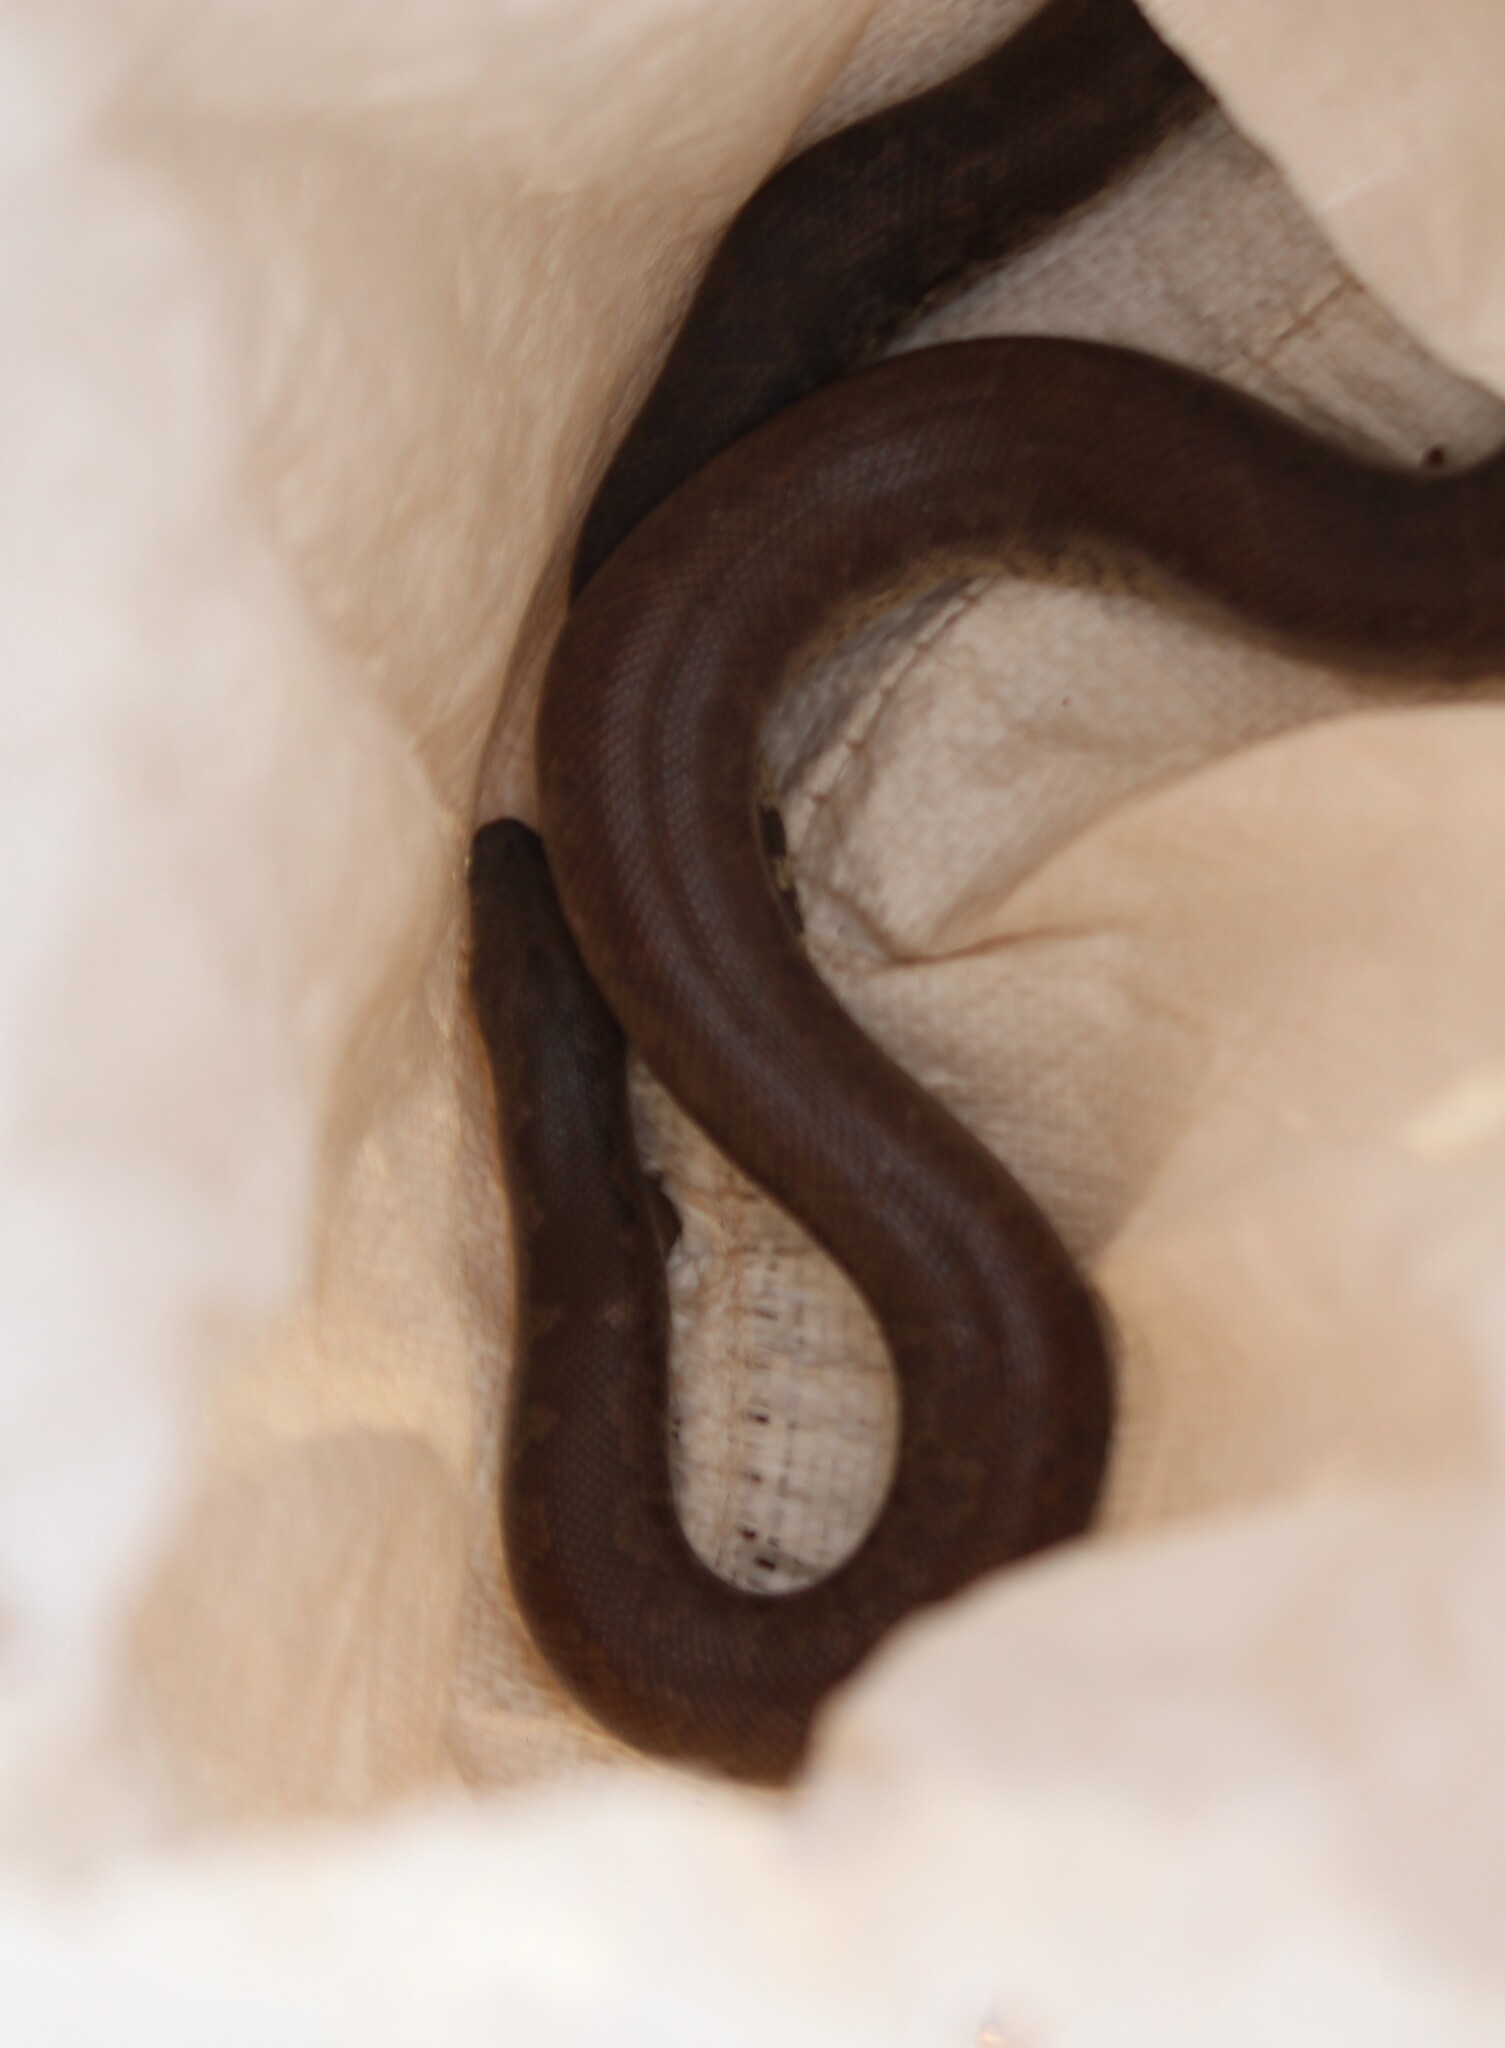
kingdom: Animalia
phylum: Chordata
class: Squamata
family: Boidae
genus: Eryx
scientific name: Eryx whitakeri
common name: Whitaker's boa
